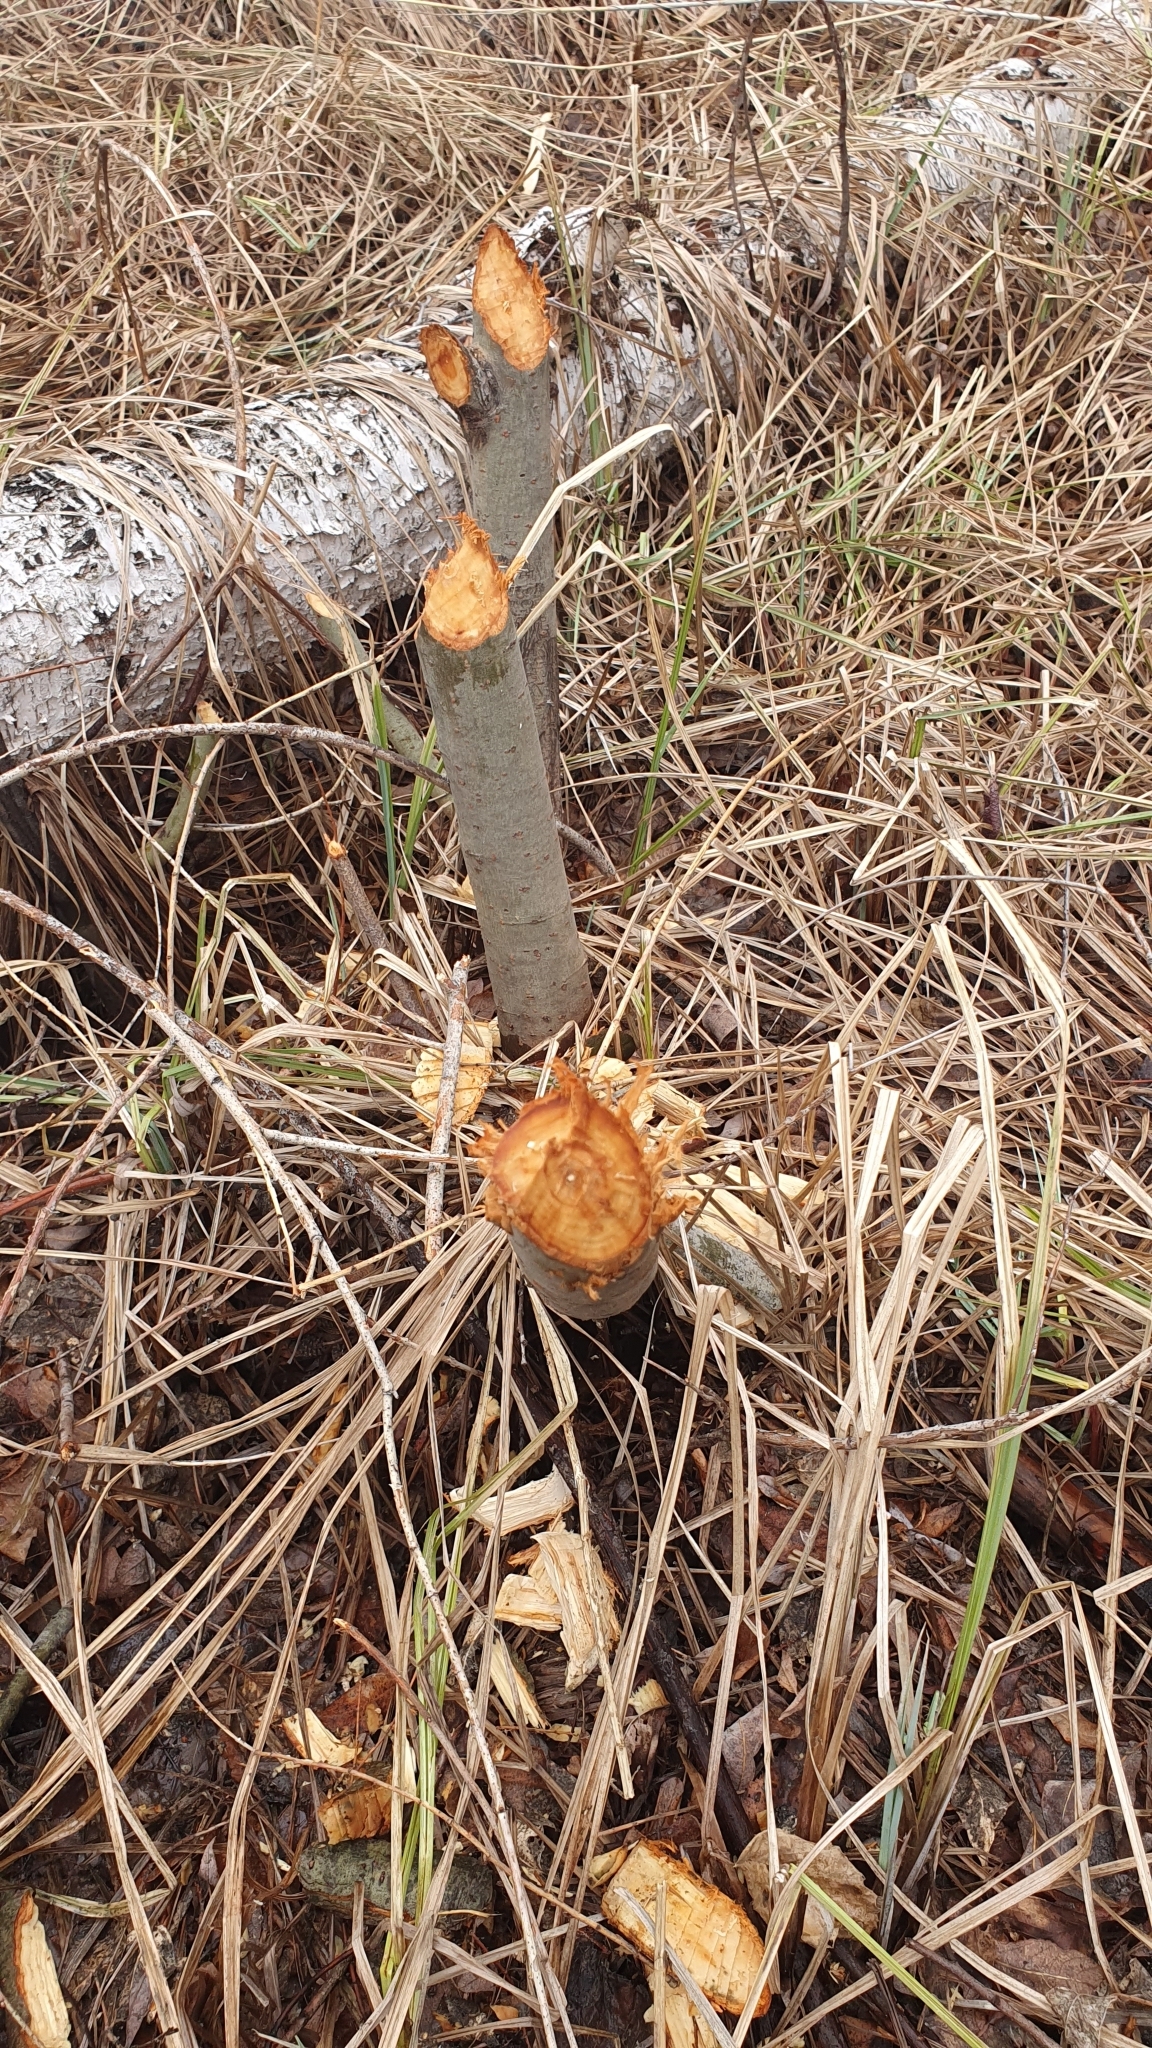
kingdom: Animalia
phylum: Chordata
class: Mammalia
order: Rodentia
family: Castoridae
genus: Castor
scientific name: Castor fiber
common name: Eurasian beaver
